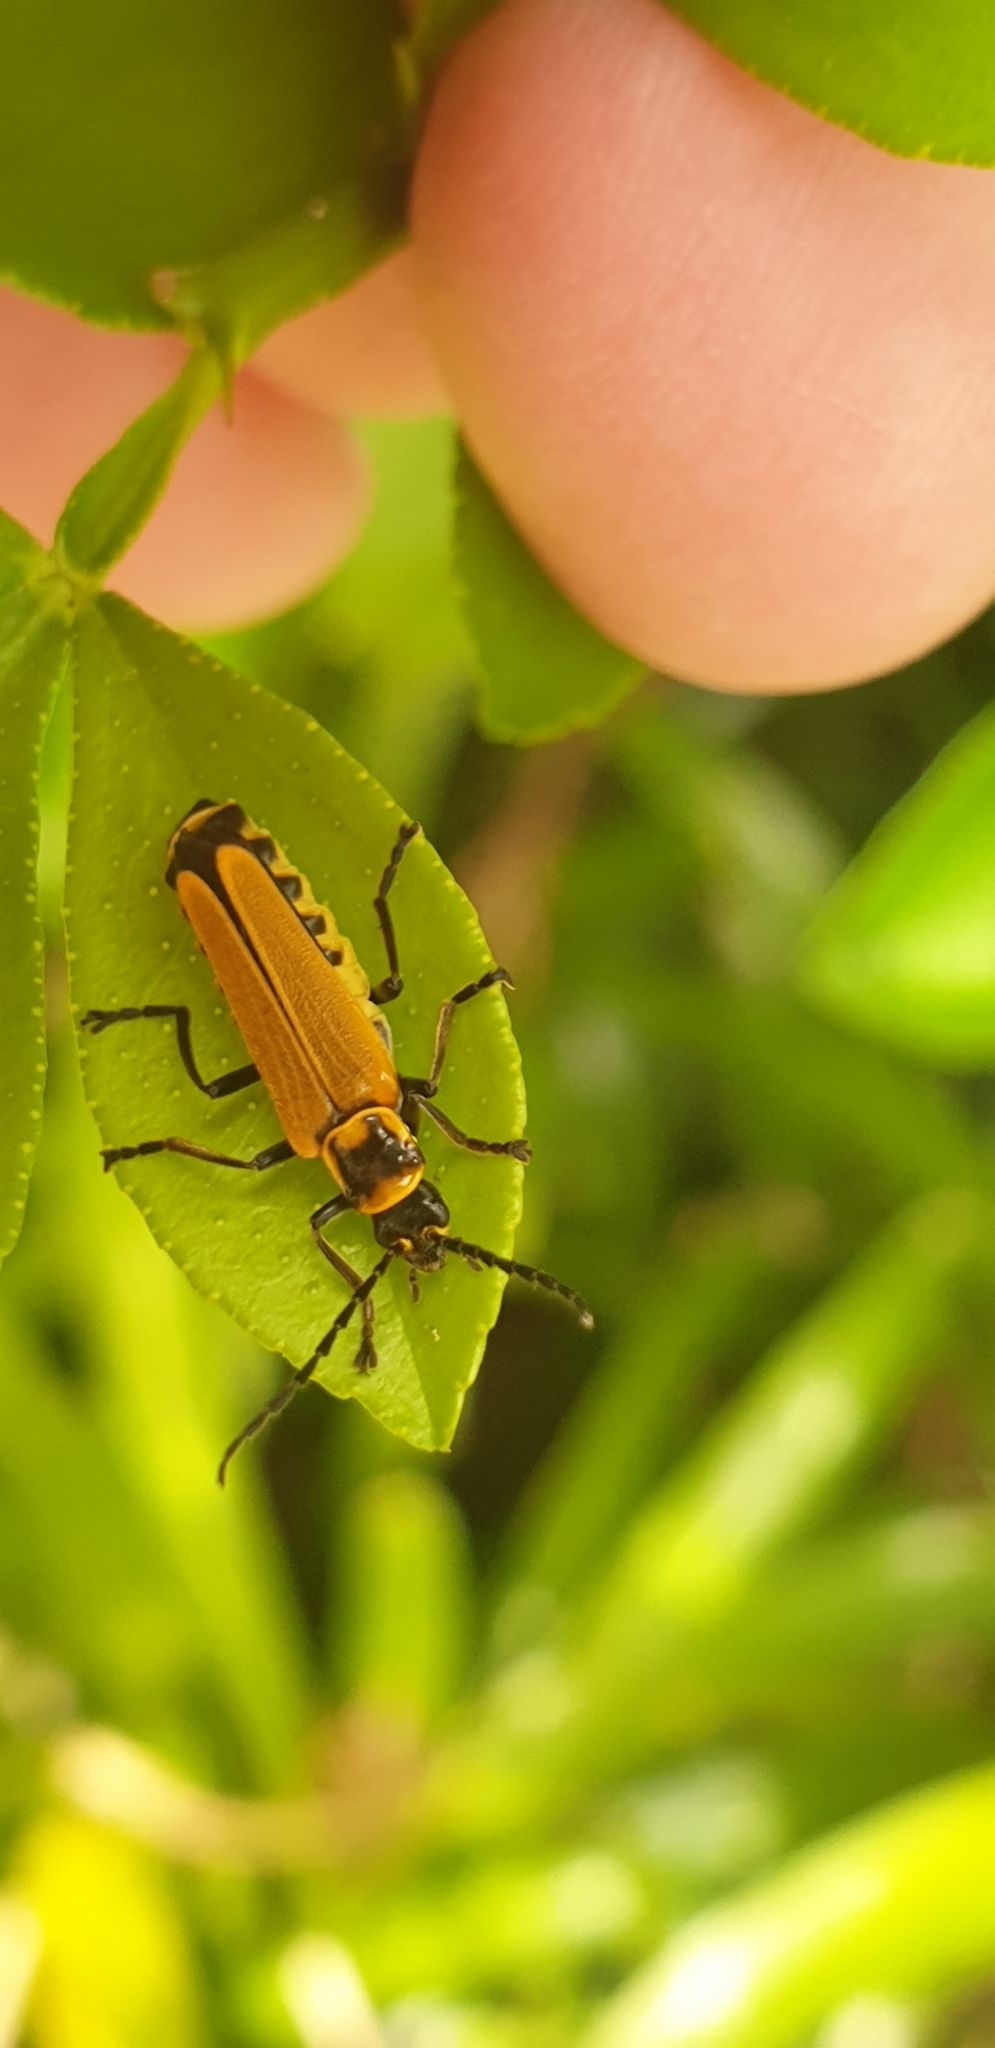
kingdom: Animalia
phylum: Arthropoda
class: Insecta
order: Coleoptera
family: Cantharidae
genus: Chauliognathus
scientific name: Chauliognathus
